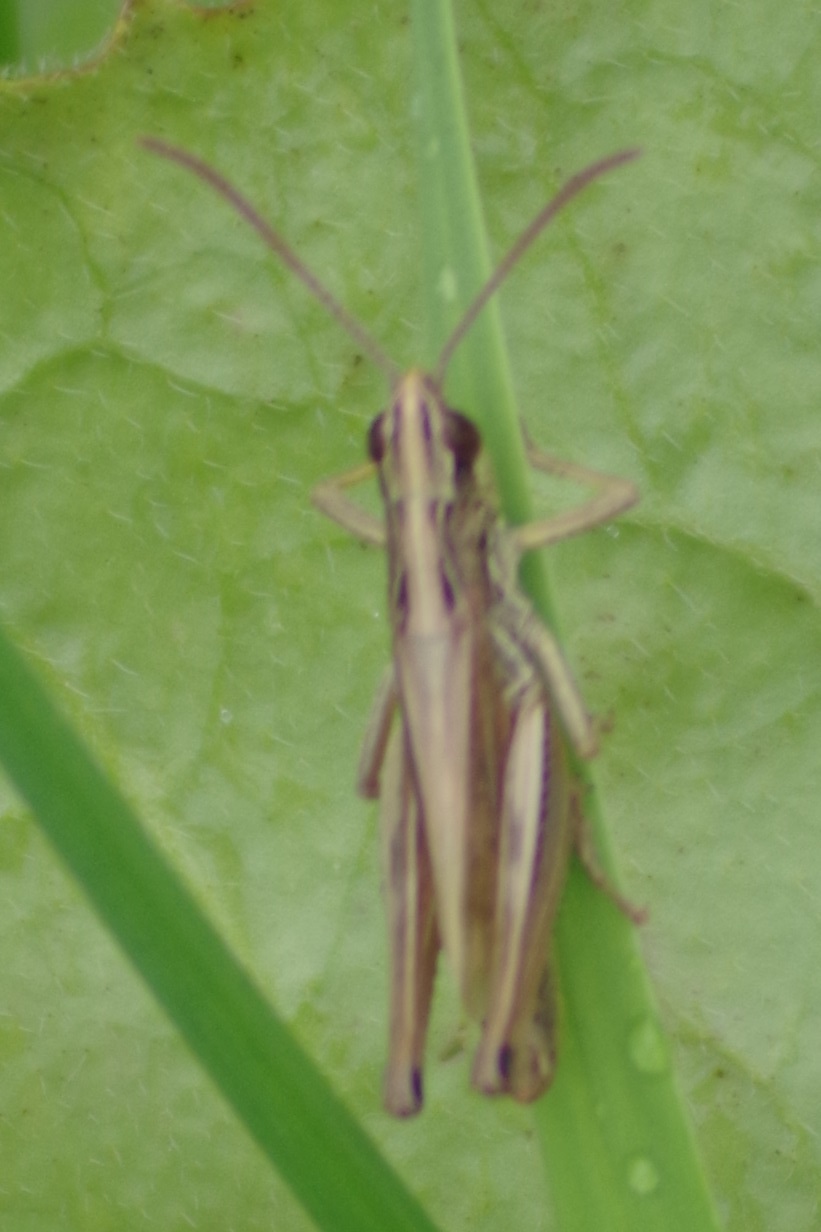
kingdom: Animalia
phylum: Arthropoda
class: Insecta
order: Orthoptera
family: Acrididae
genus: Pseudochorthippus
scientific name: Pseudochorthippus parallelus
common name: Meadow grasshopper
